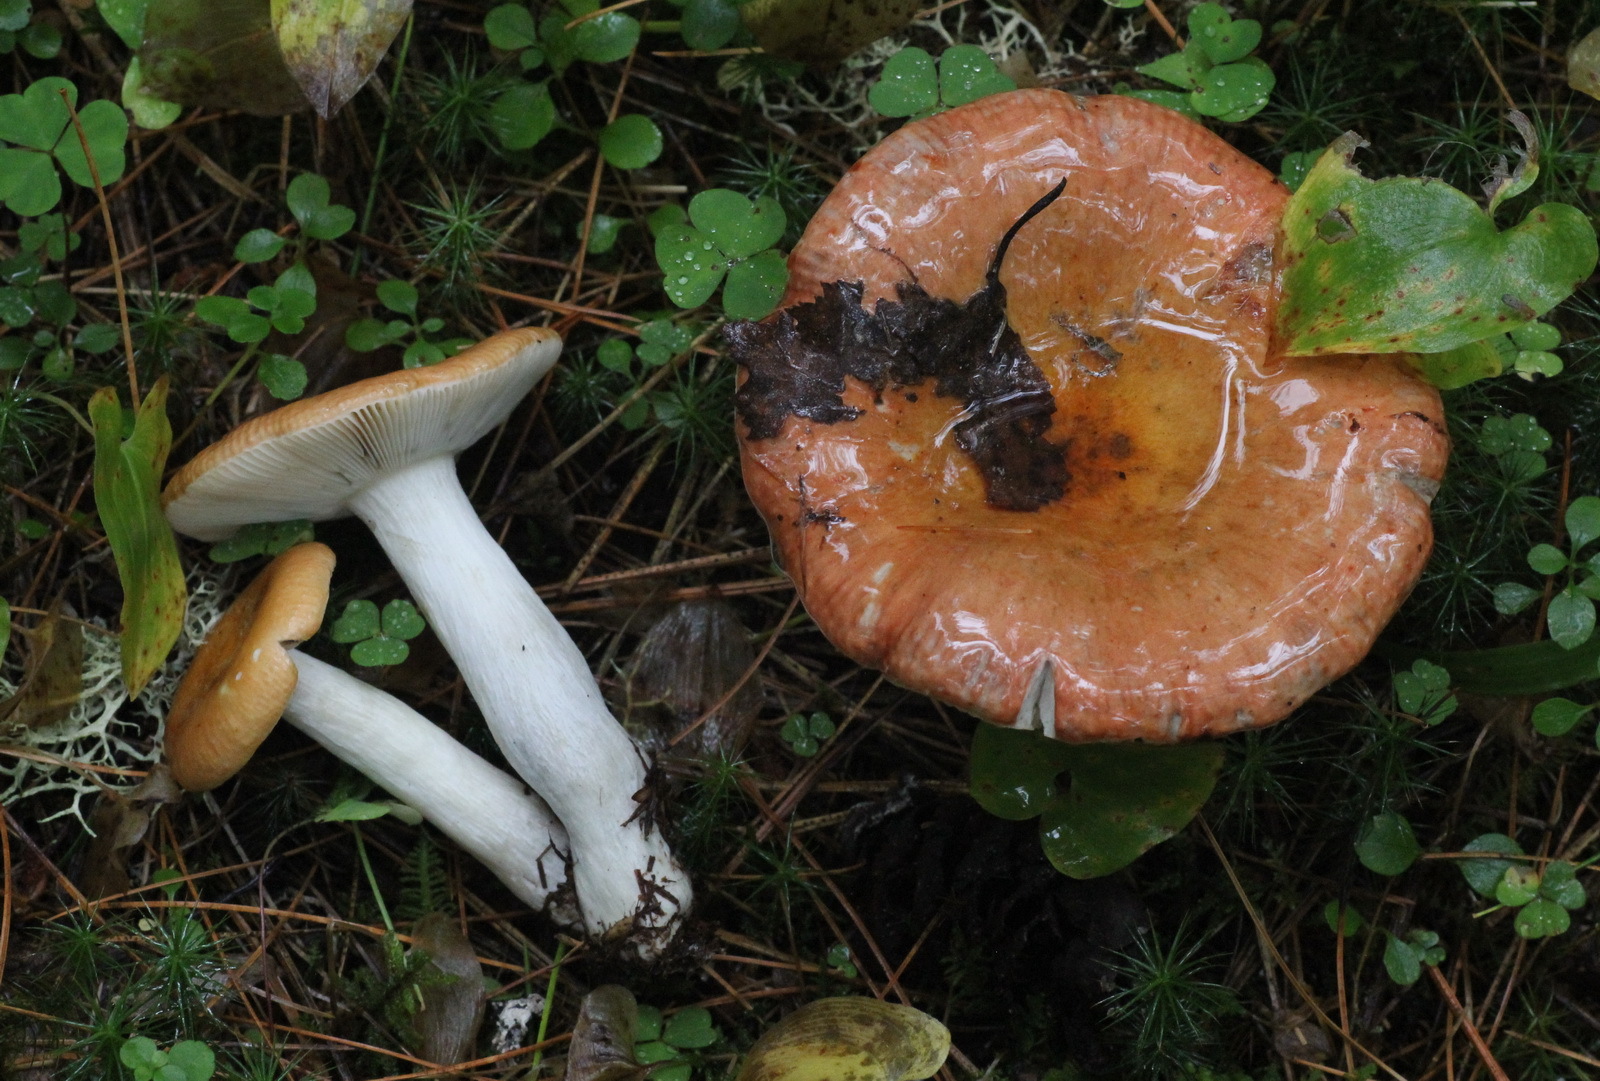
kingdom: Fungi
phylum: Basidiomycota
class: Agaricomycetes
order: Russulales
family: Russulaceae
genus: Russula
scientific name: Russula decolorans
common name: Copper brittlegill
